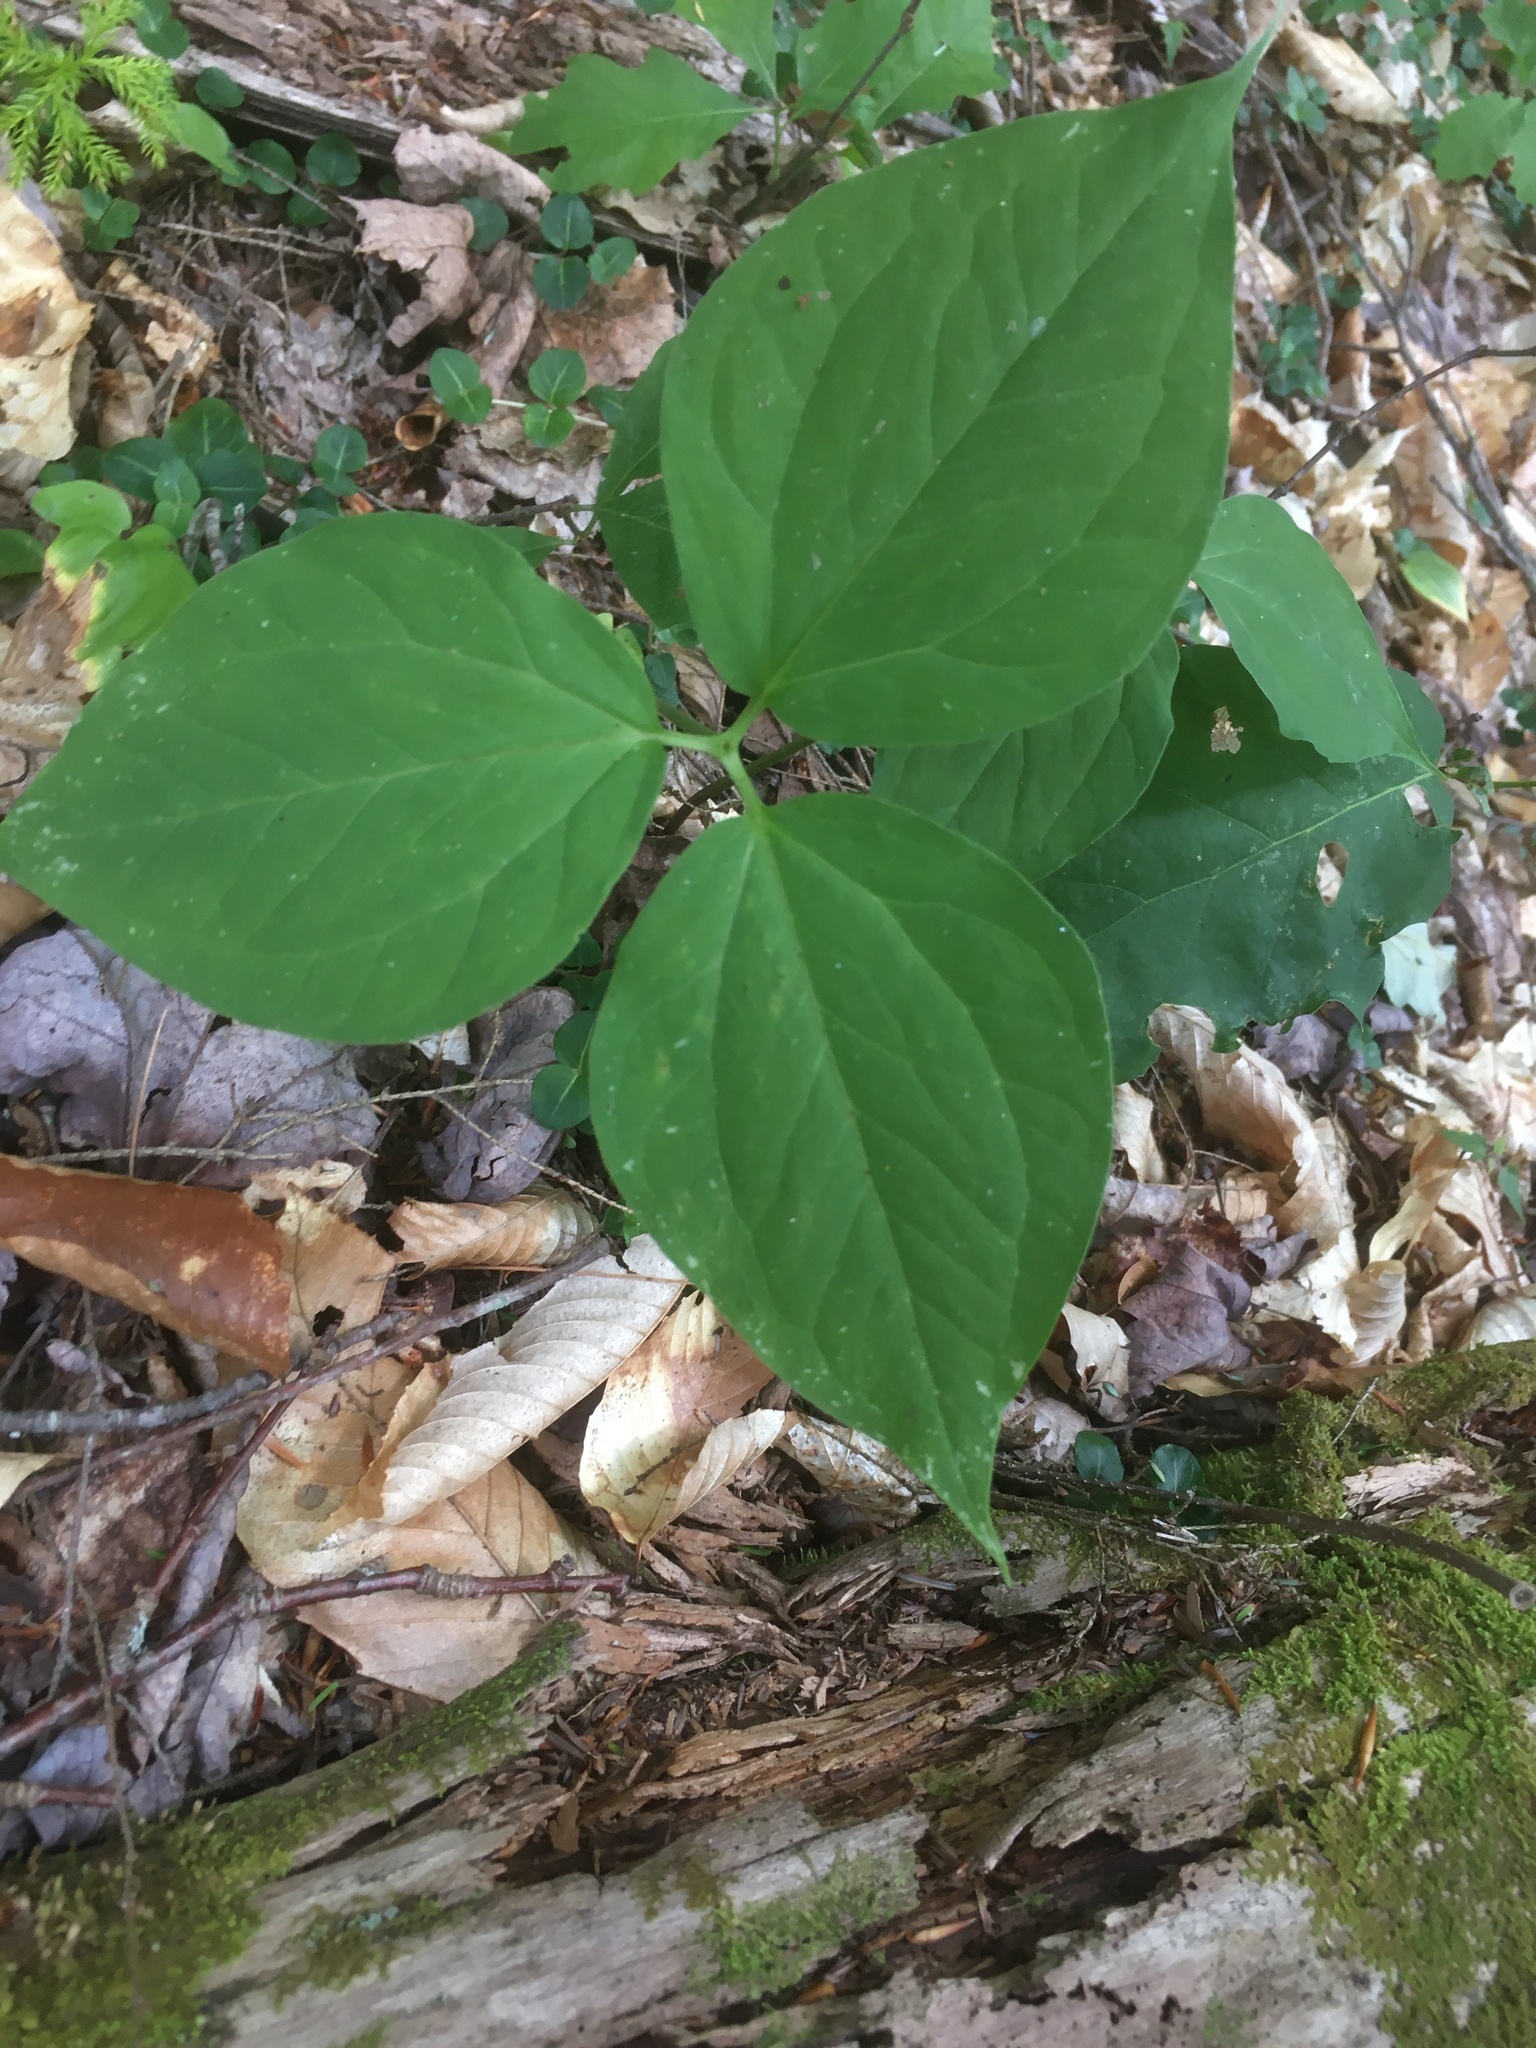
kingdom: Plantae
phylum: Tracheophyta
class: Liliopsida
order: Liliales
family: Melanthiaceae
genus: Trillium
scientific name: Trillium undulatum
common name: Paint trillium
